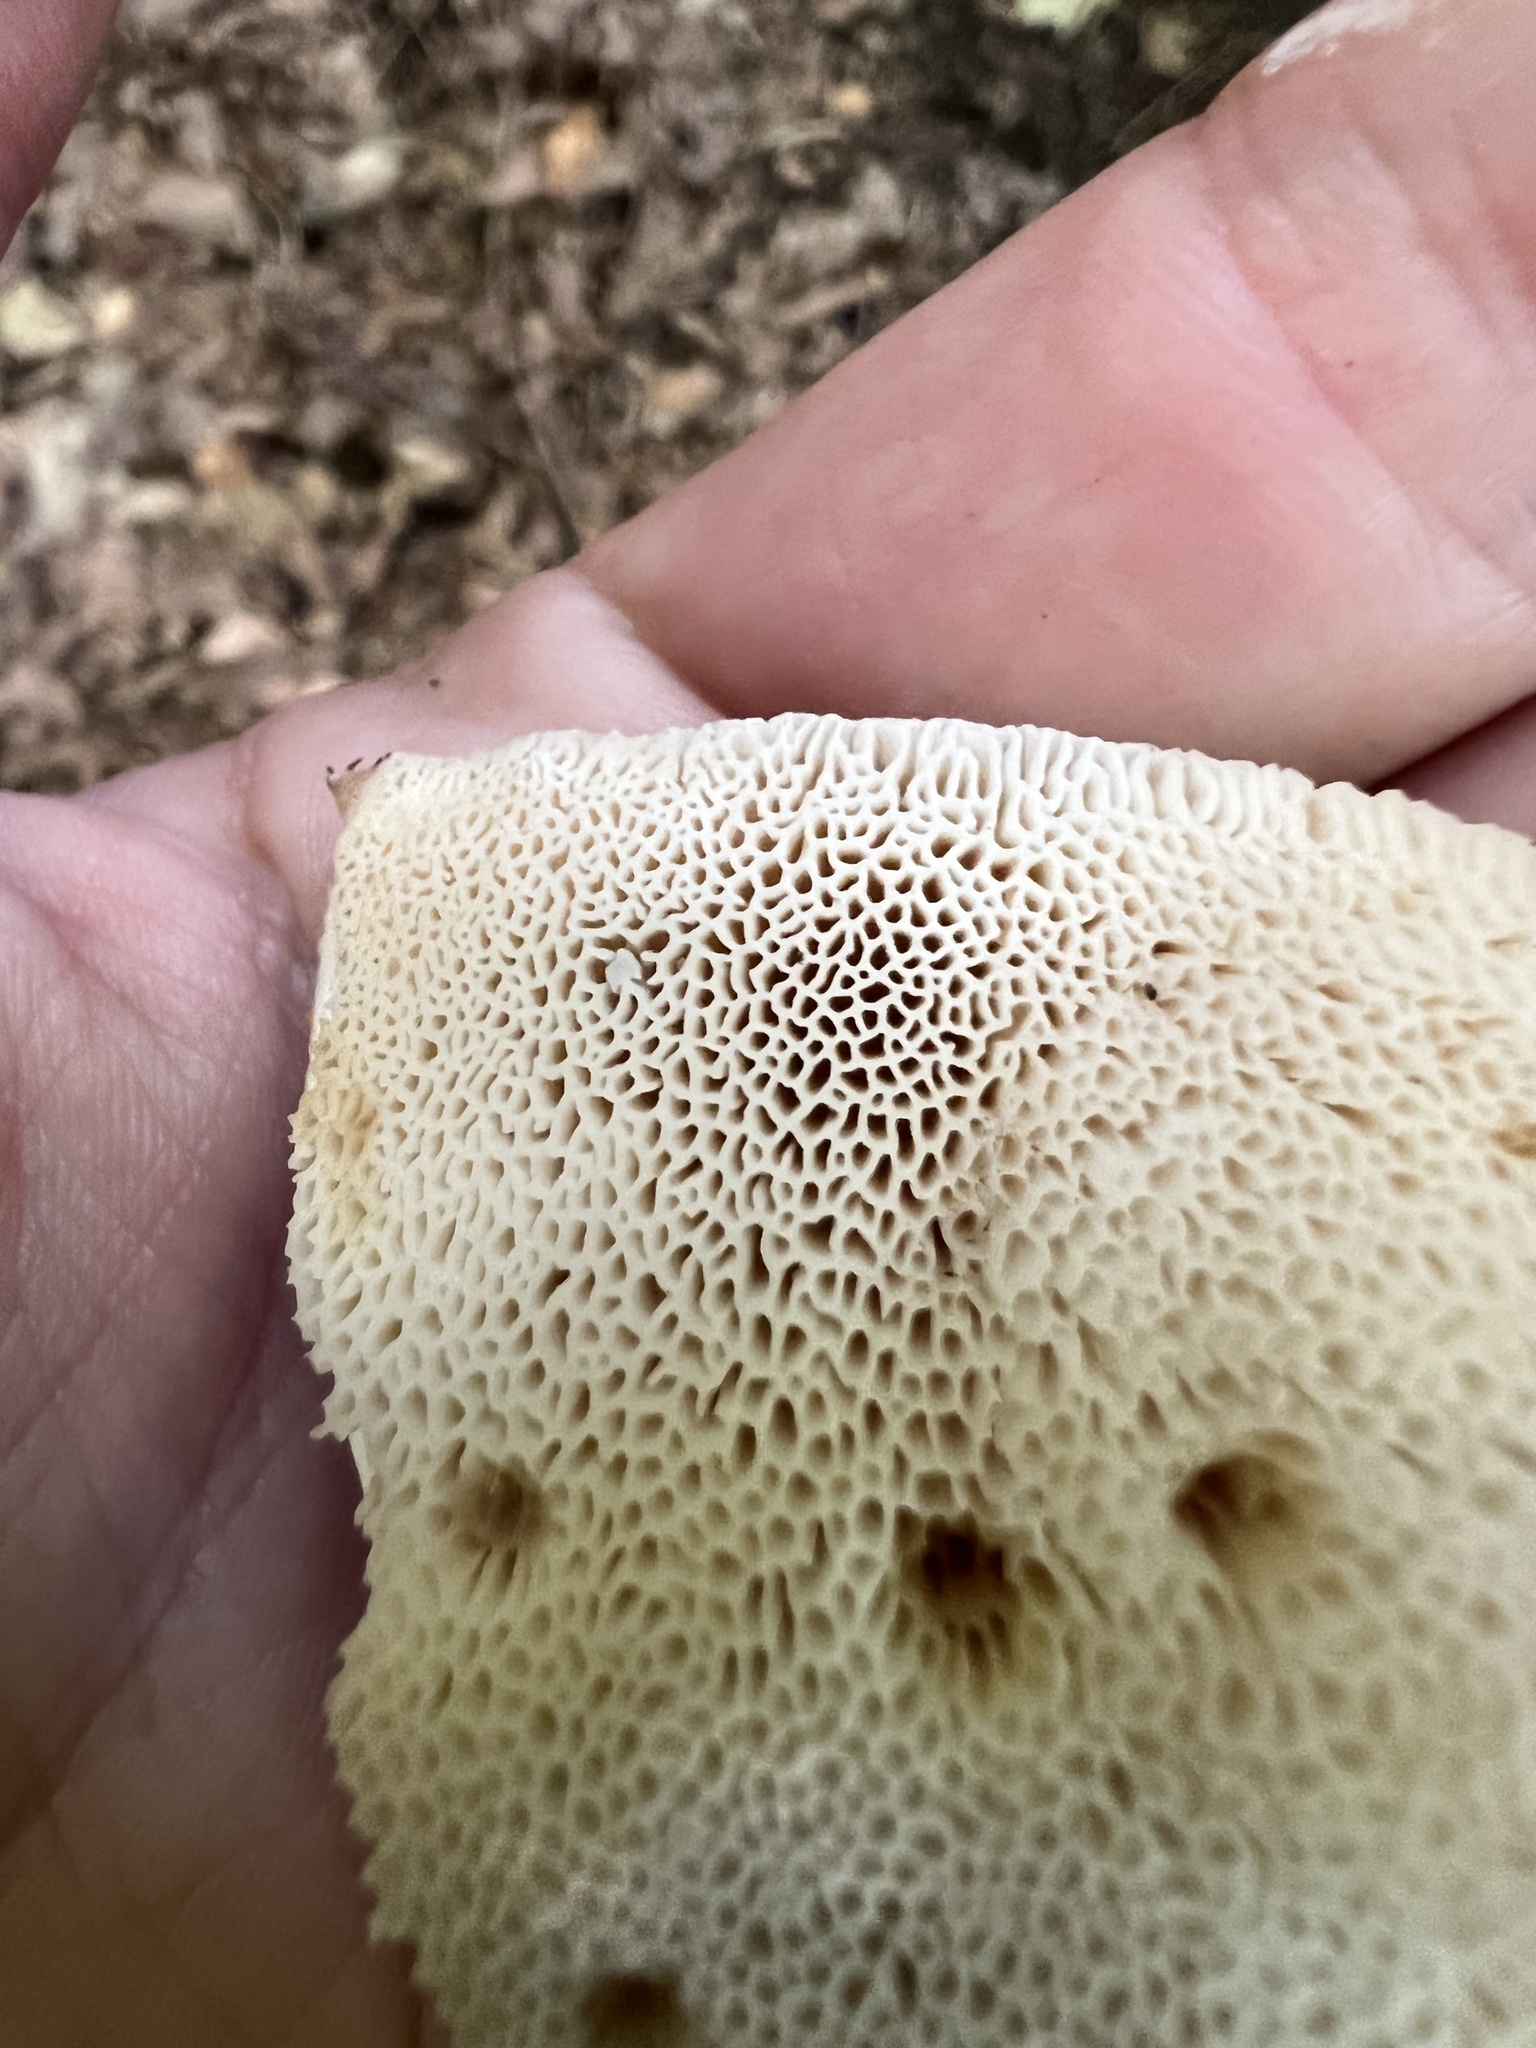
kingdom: Fungi
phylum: Basidiomycota
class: Agaricomycetes
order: Russulales
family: Bondarzewiaceae
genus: Bondarzewia
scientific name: Bondarzewia berkeleyi
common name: Berkeley's polypore
